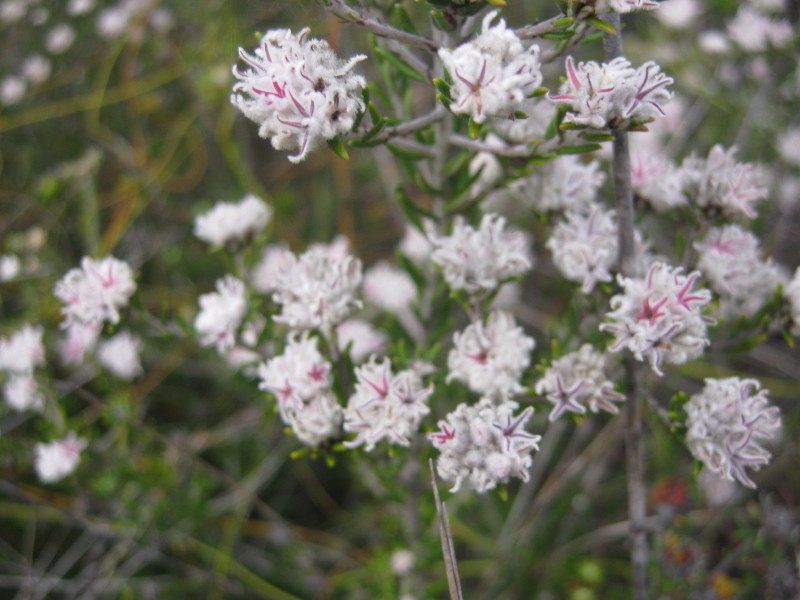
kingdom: Plantae
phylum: Tracheophyta
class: Magnoliopsida
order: Rosales
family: Rhamnaceae
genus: Trichocephalus
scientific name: Trichocephalus stipularis
